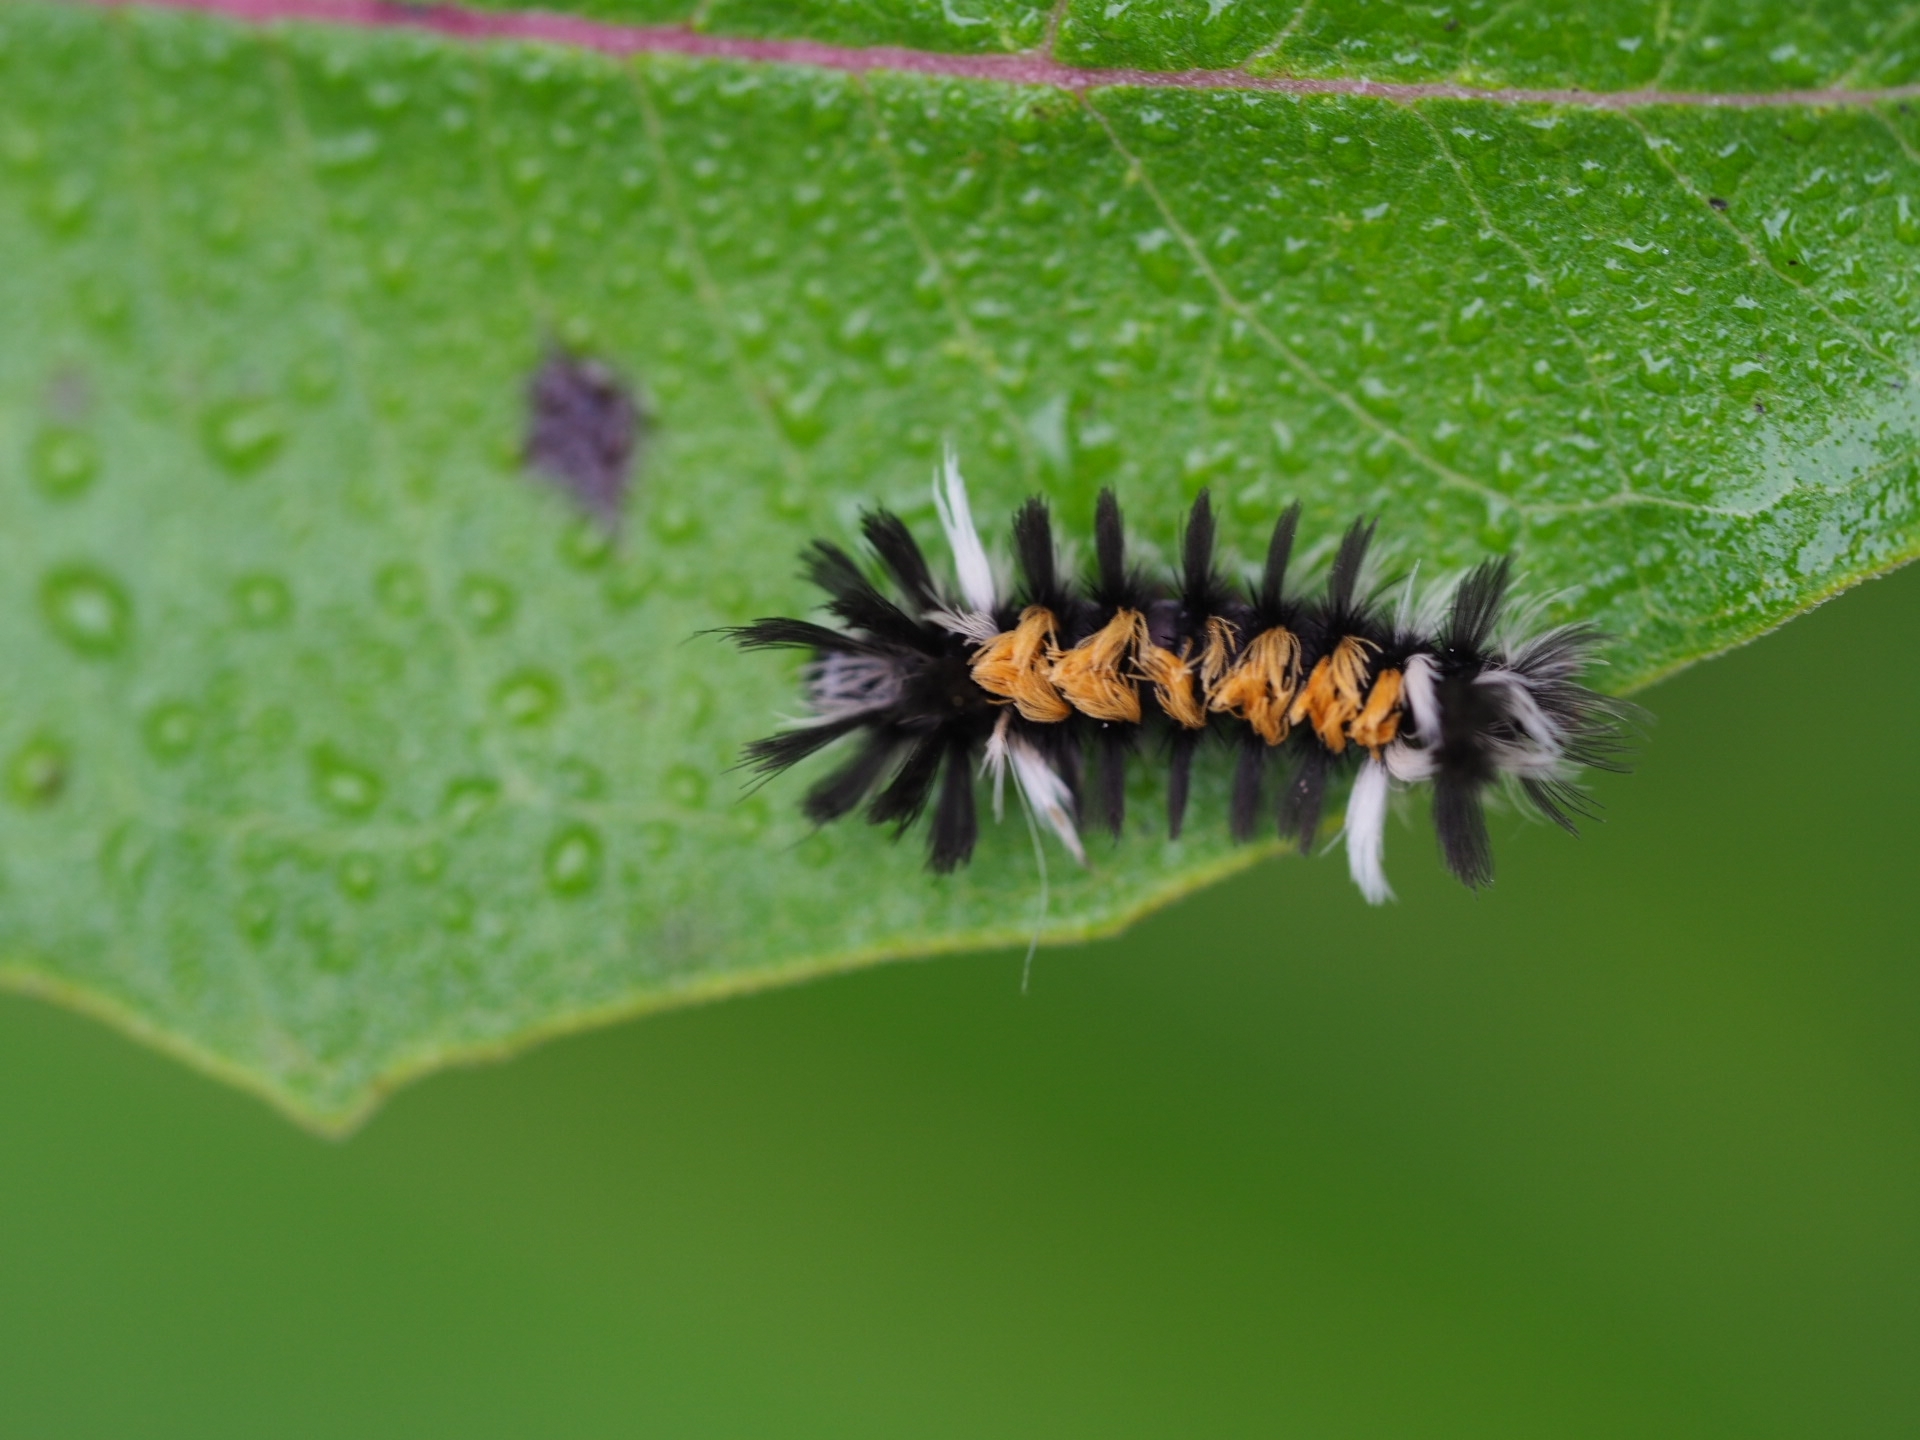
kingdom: Animalia
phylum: Arthropoda
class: Insecta
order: Lepidoptera
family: Erebidae
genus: Euchaetes
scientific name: Euchaetes egle
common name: Milkweed tussock moth
